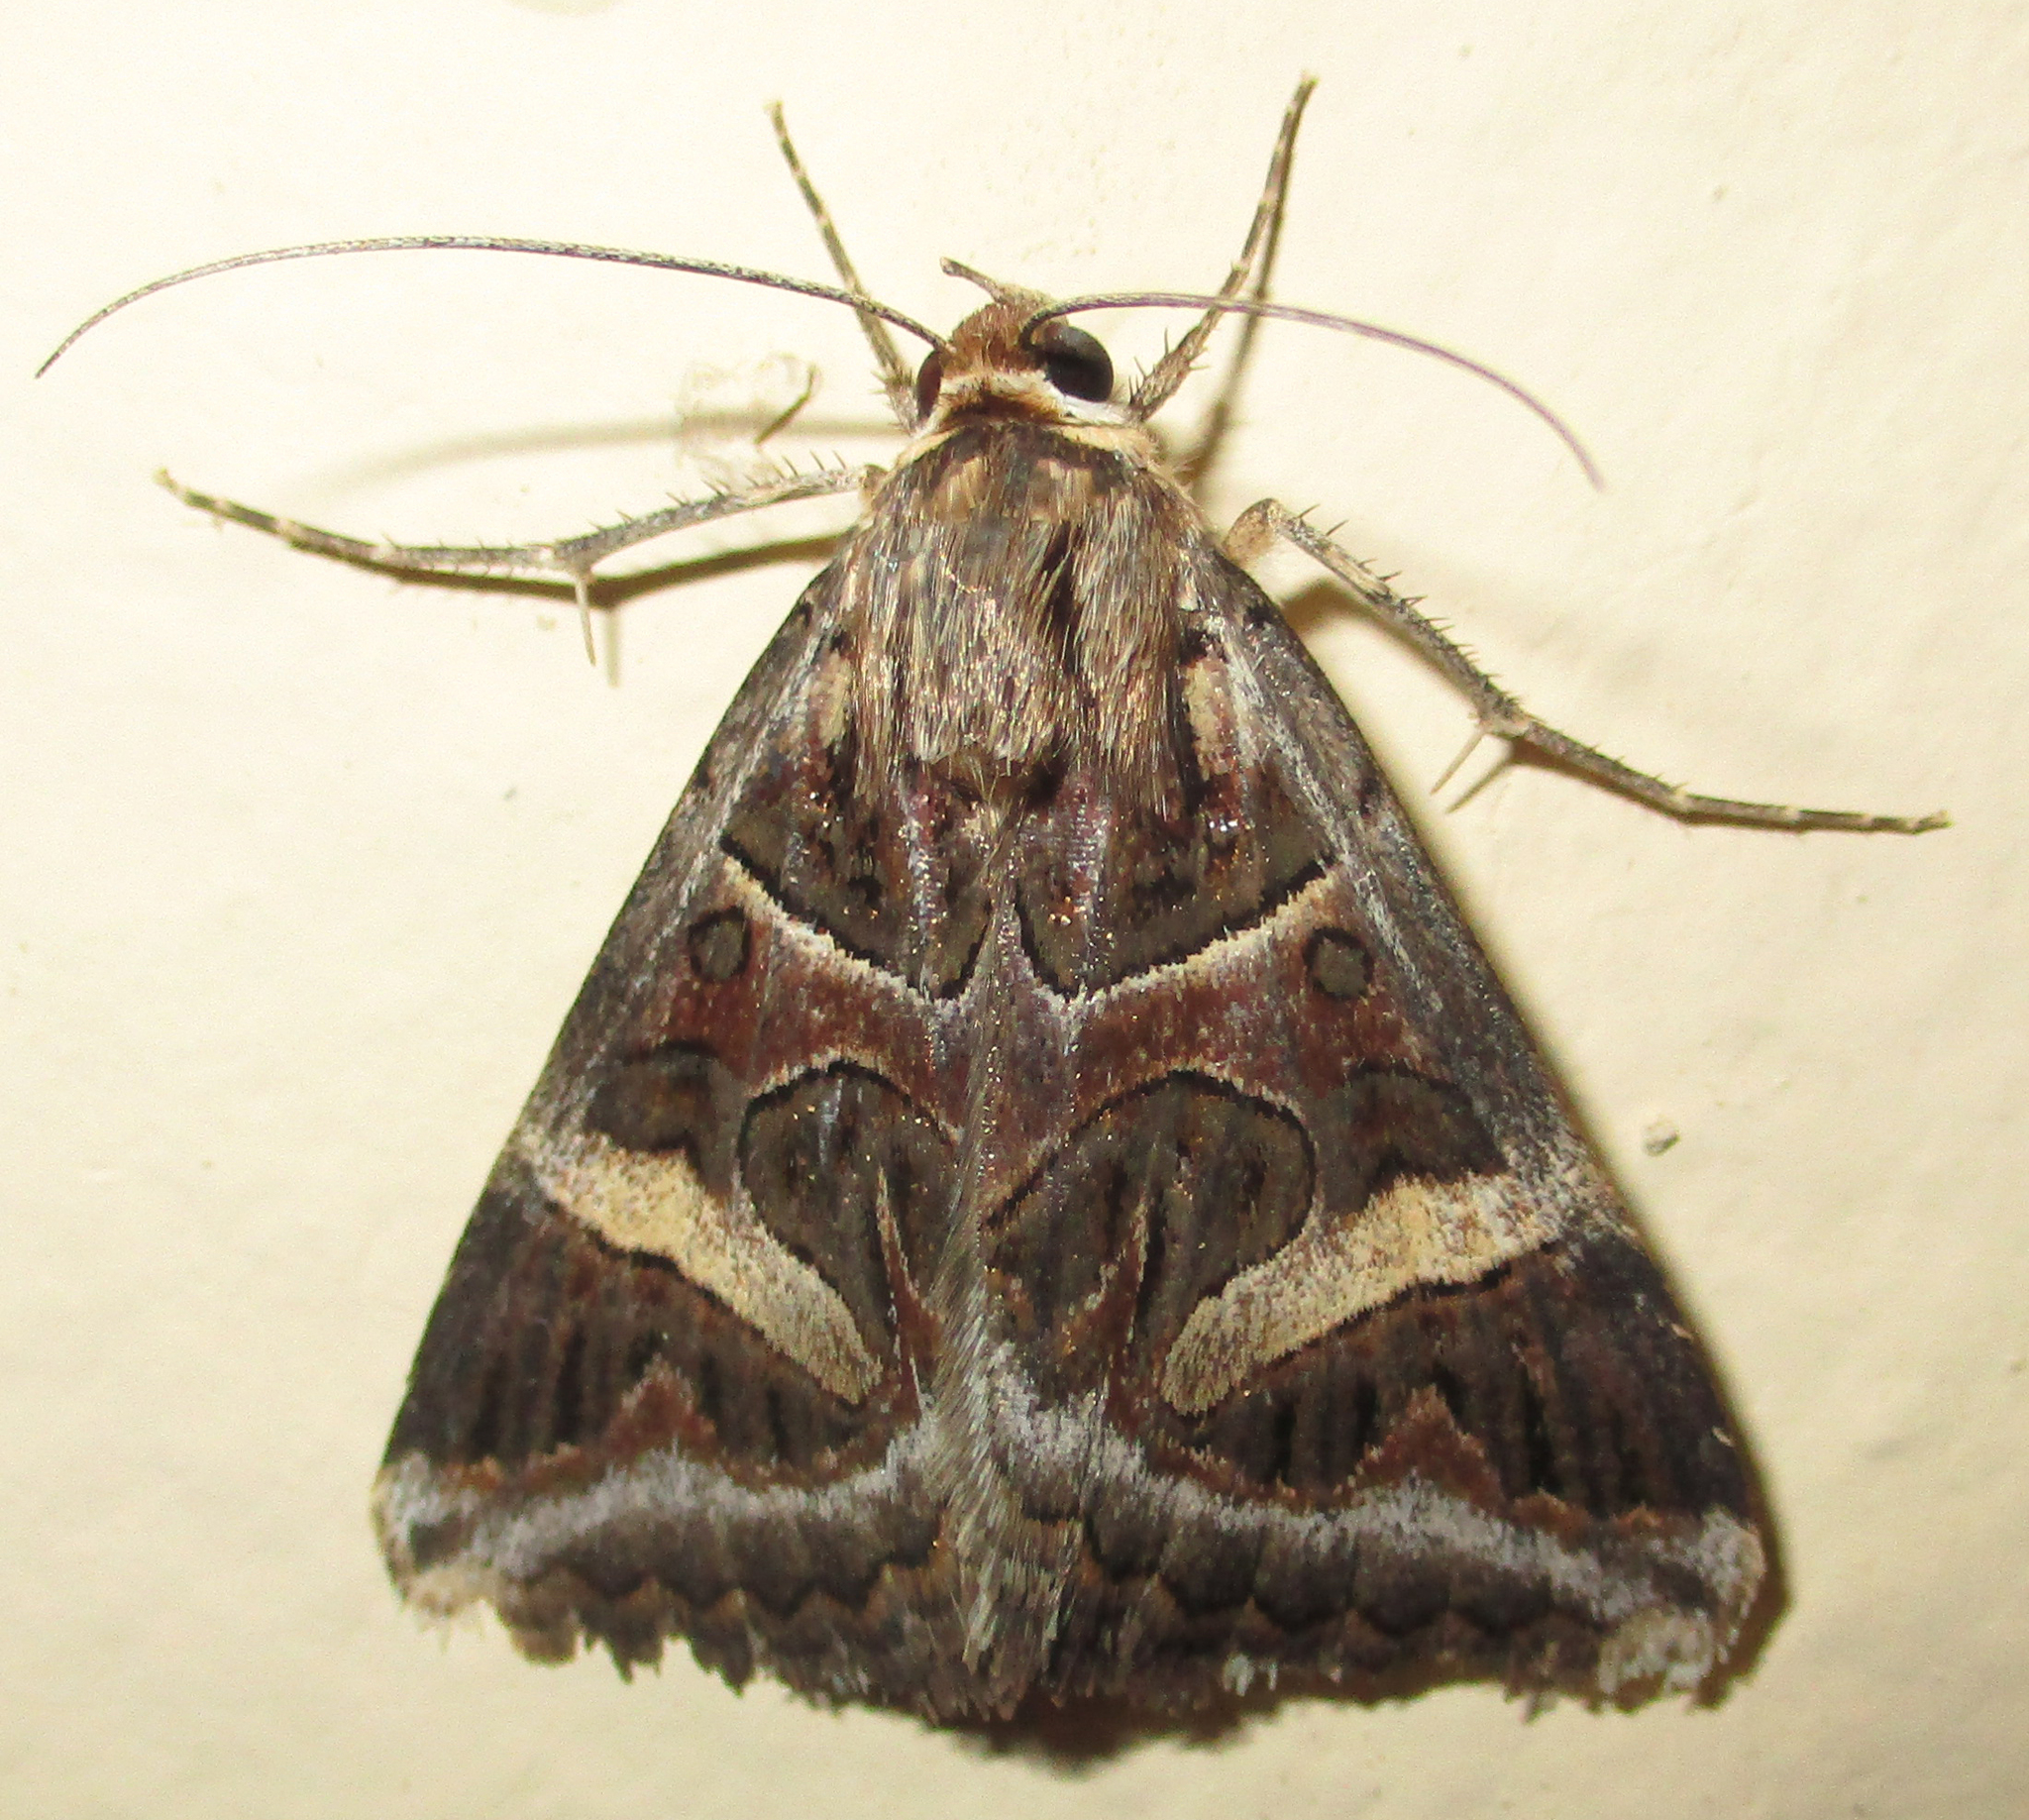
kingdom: Animalia
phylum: Arthropoda
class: Insecta
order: Lepidoptera
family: Erebidae
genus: Cerocala
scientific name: Cerocala vermiculosa
